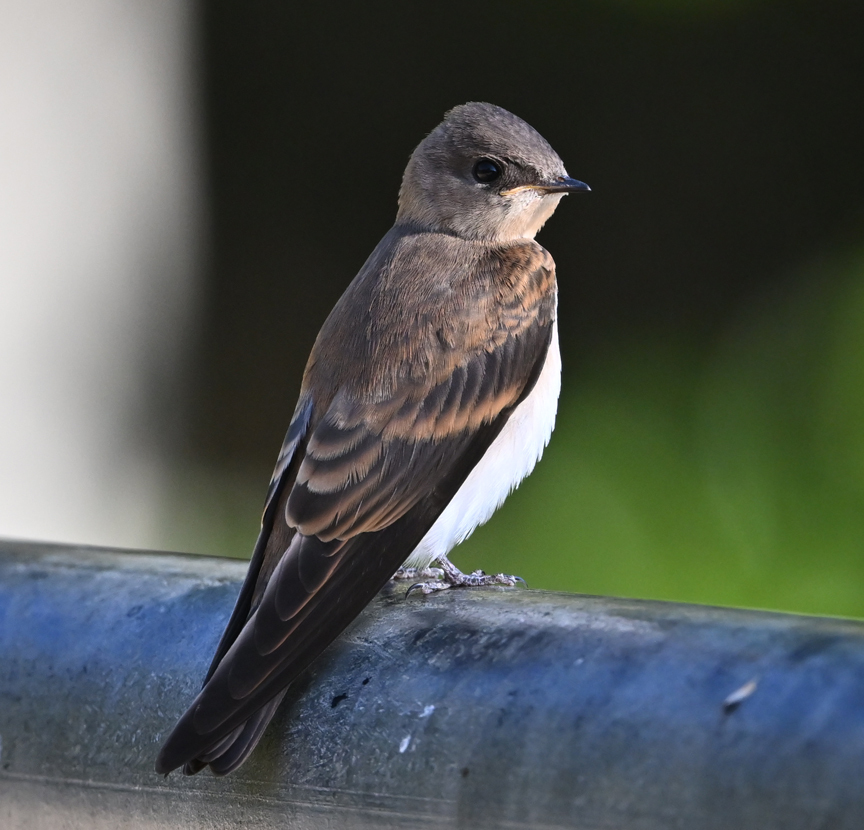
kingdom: Animalia
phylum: Chordata
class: Aves
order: Passeriformes
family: Hirundinidae
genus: Stelgidopteryx
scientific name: Stelgidopteryx serripennis
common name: Northern rough-winged swallow
